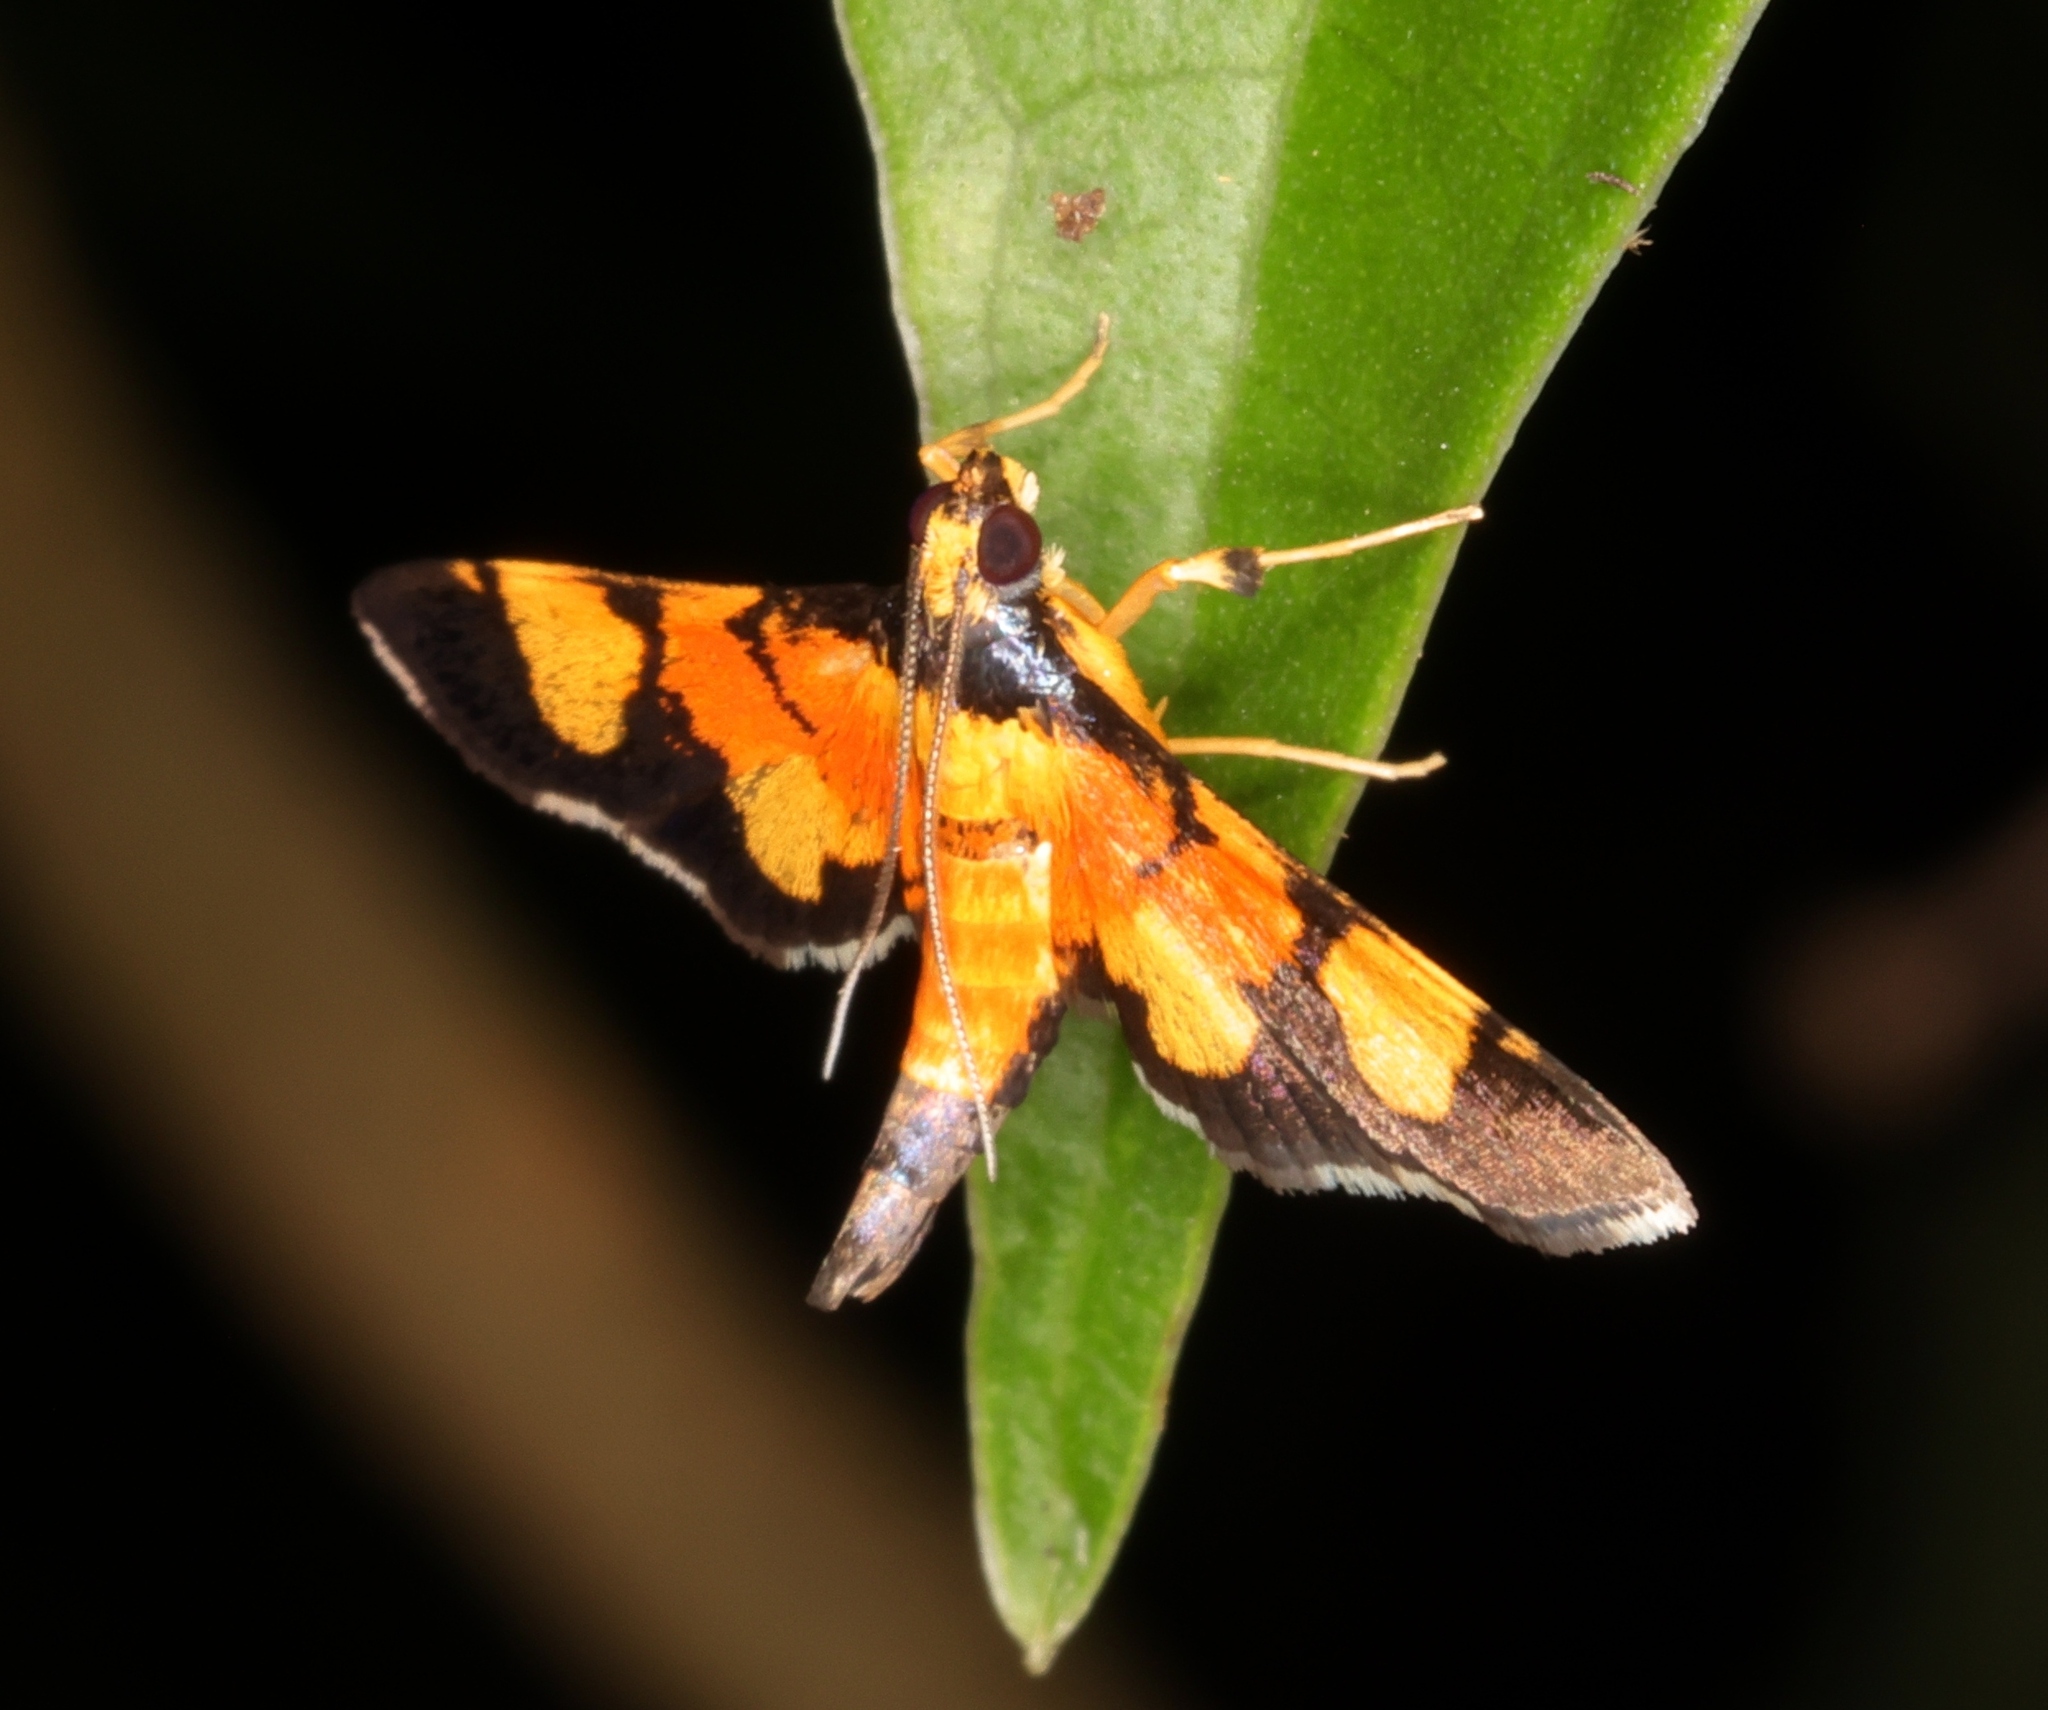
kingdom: Animalia
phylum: Arthropoda
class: Insecta
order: Lepidoptera
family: Crambidae
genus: Aethaloessa
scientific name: Aethaloessa calidalis
